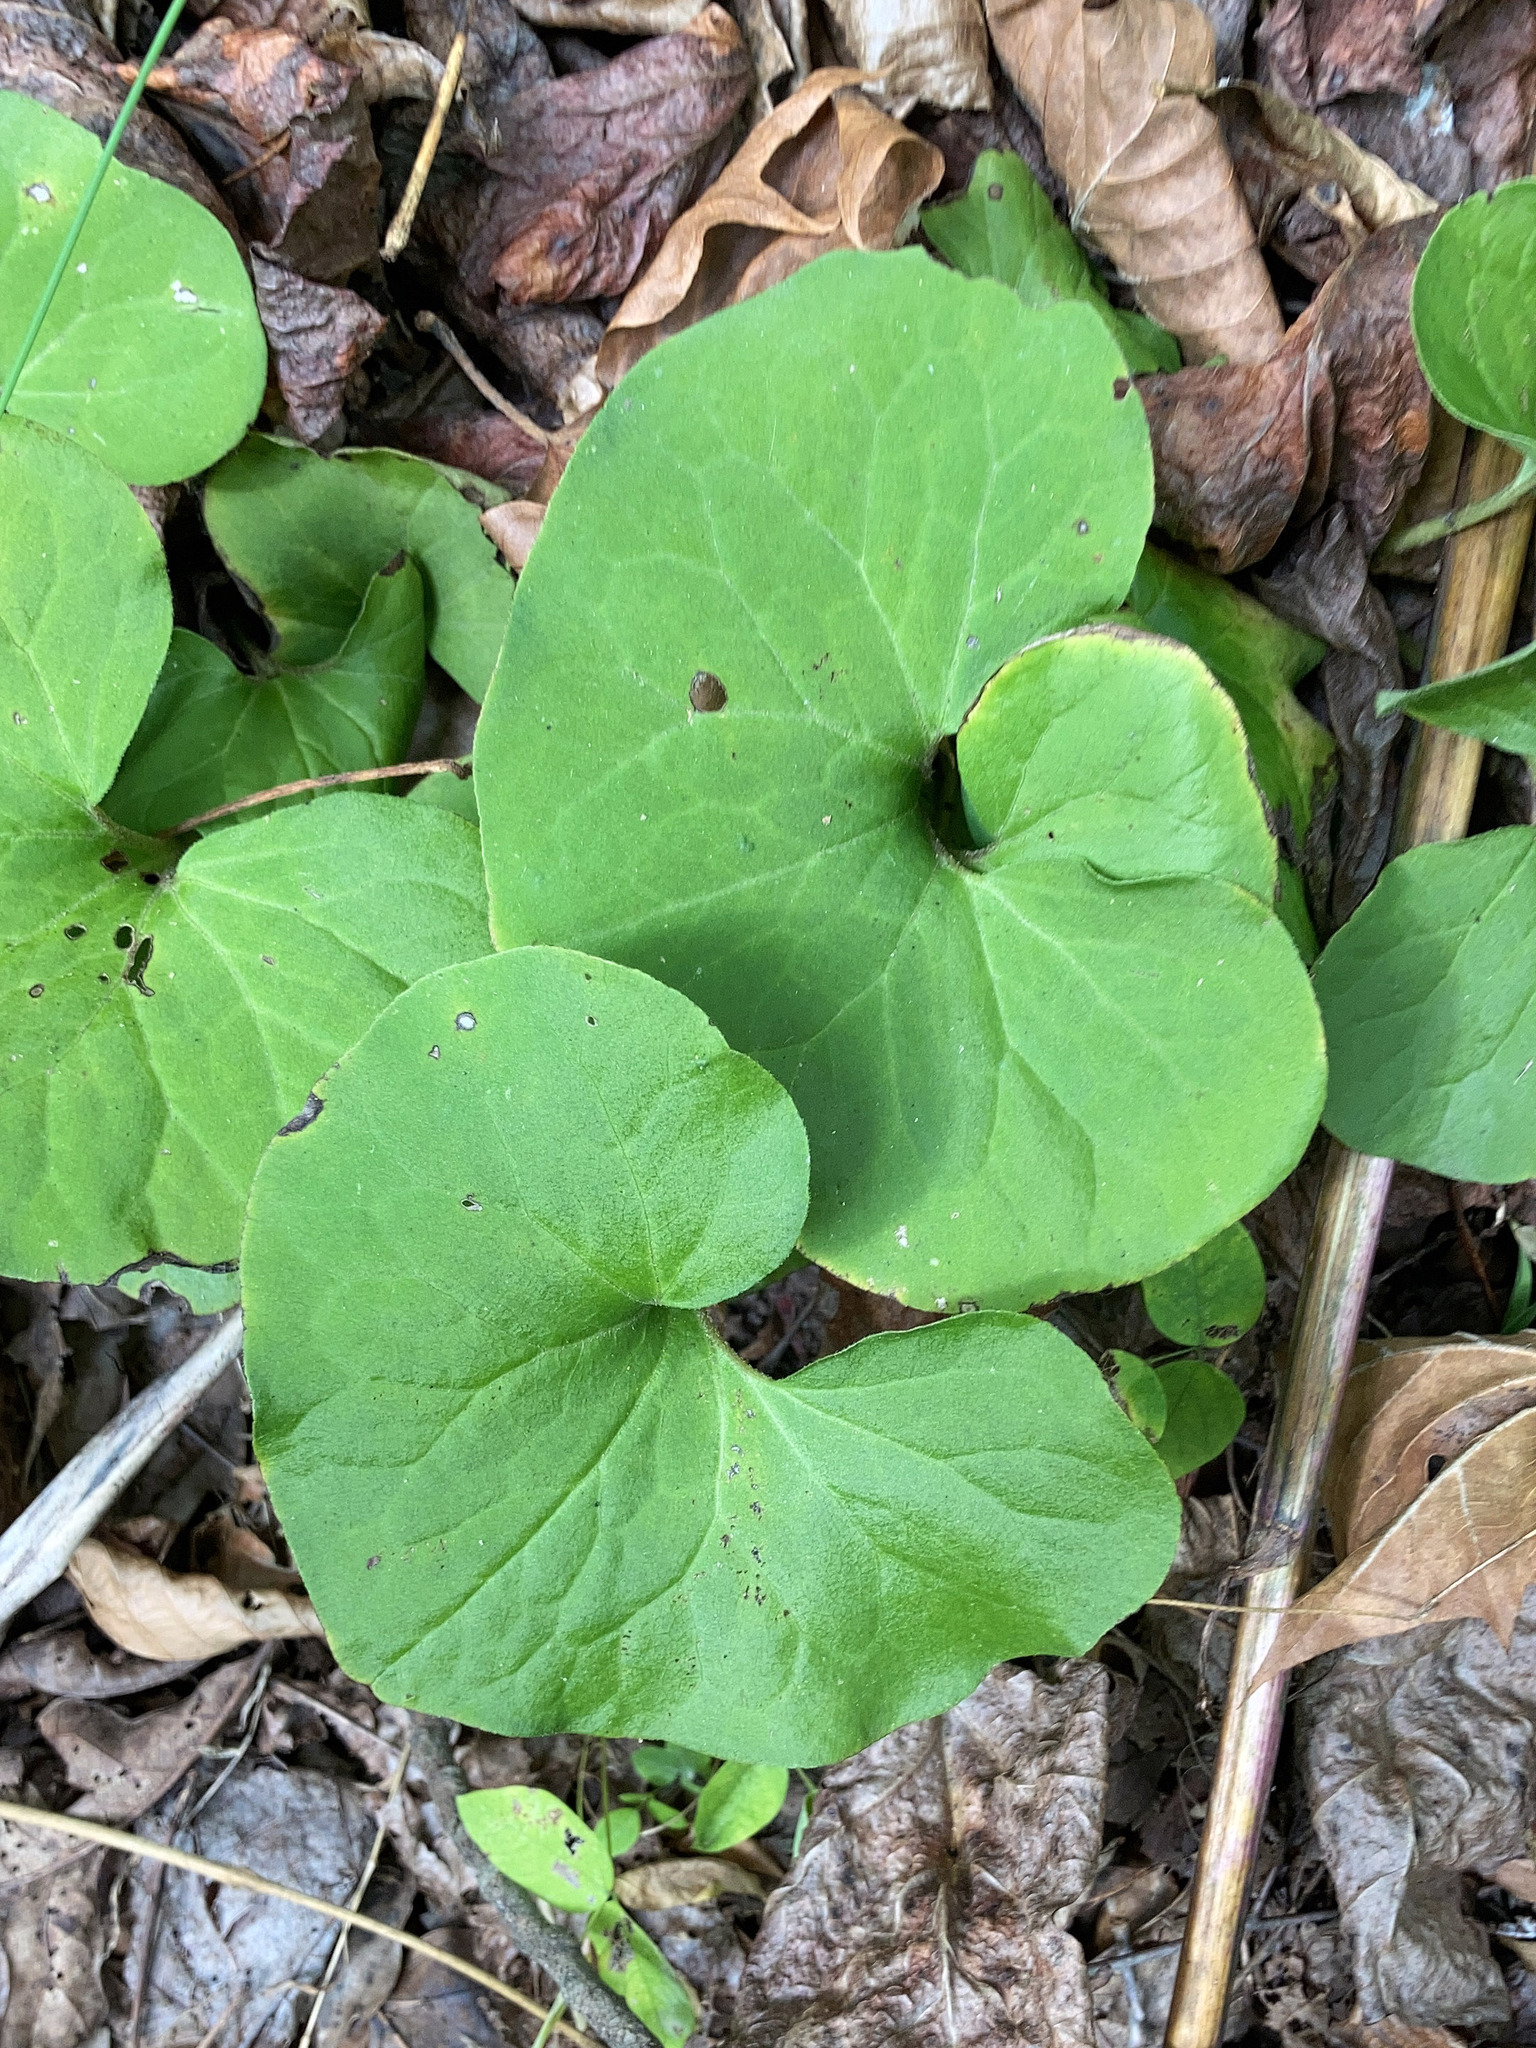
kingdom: Plantae
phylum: Tracheophyta
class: Magnoliopsida
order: Piperales
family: Aristolochiaceae
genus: Asarum
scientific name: Asarum canadense
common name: Wild ginger
